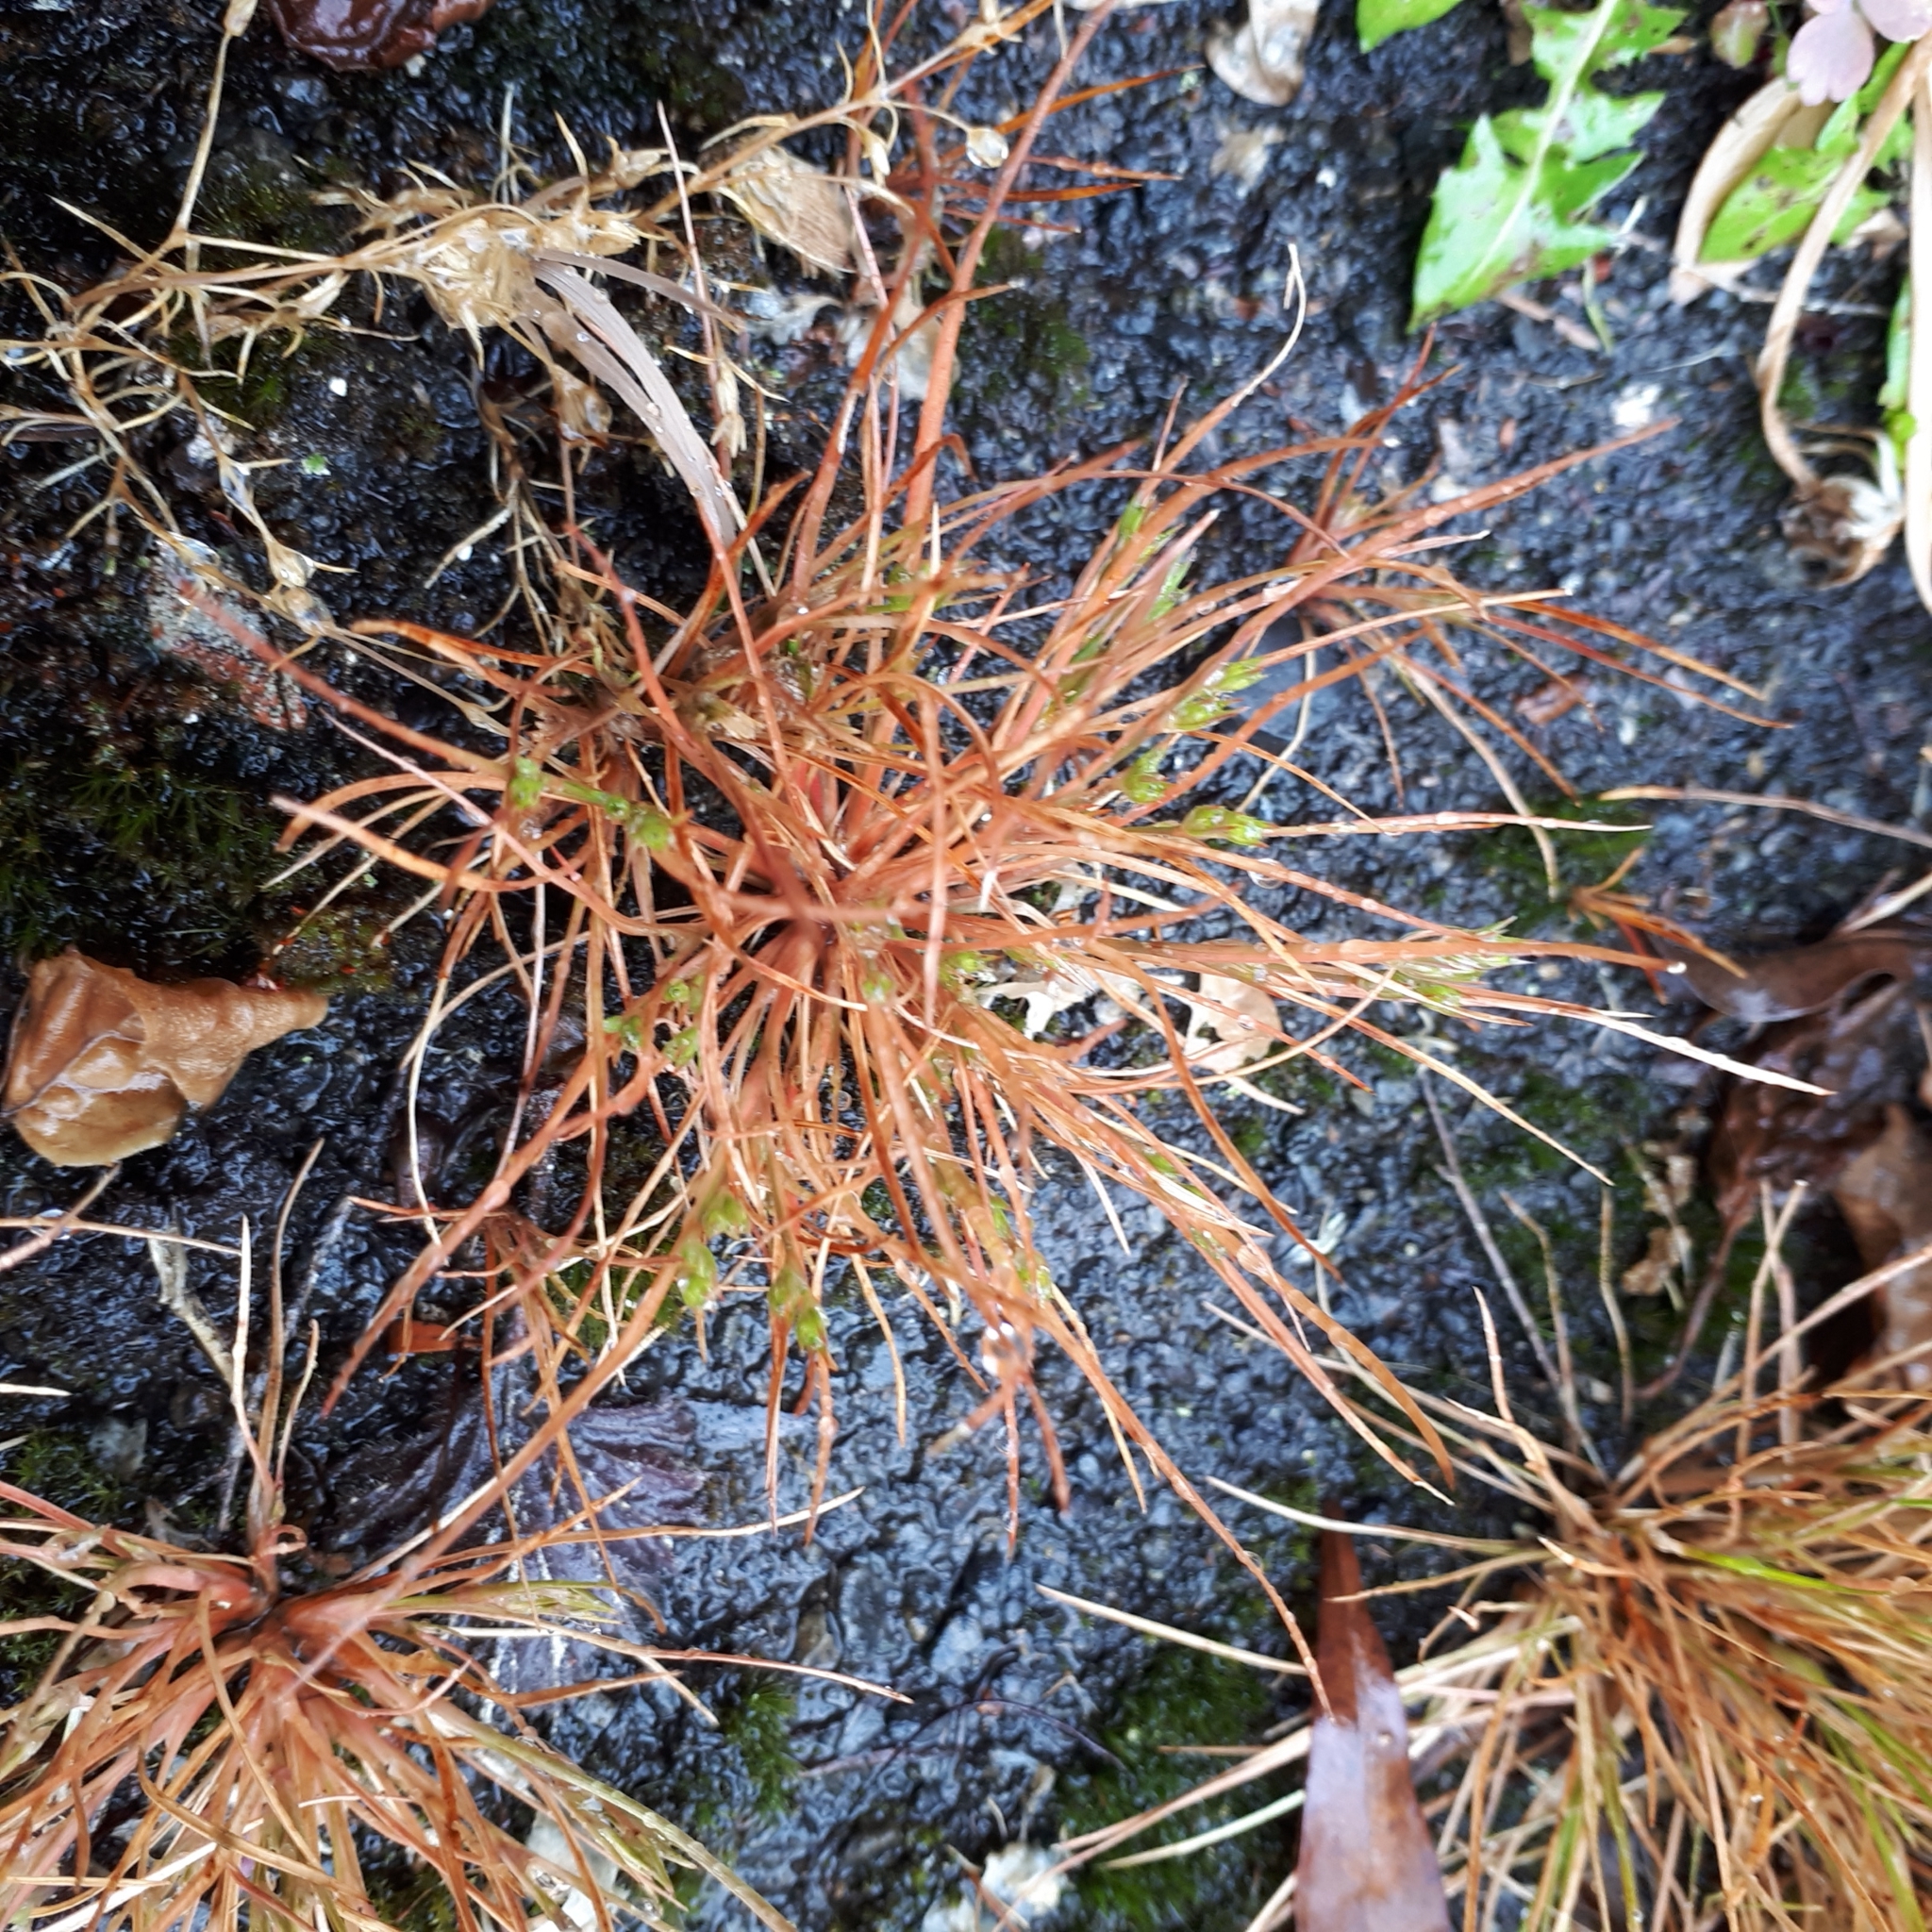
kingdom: Plantae
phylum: Tracheophyta
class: Liliopsida
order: Poales
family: Juncaceae
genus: Juncus
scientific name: Juncus bufonius
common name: Toad rush
